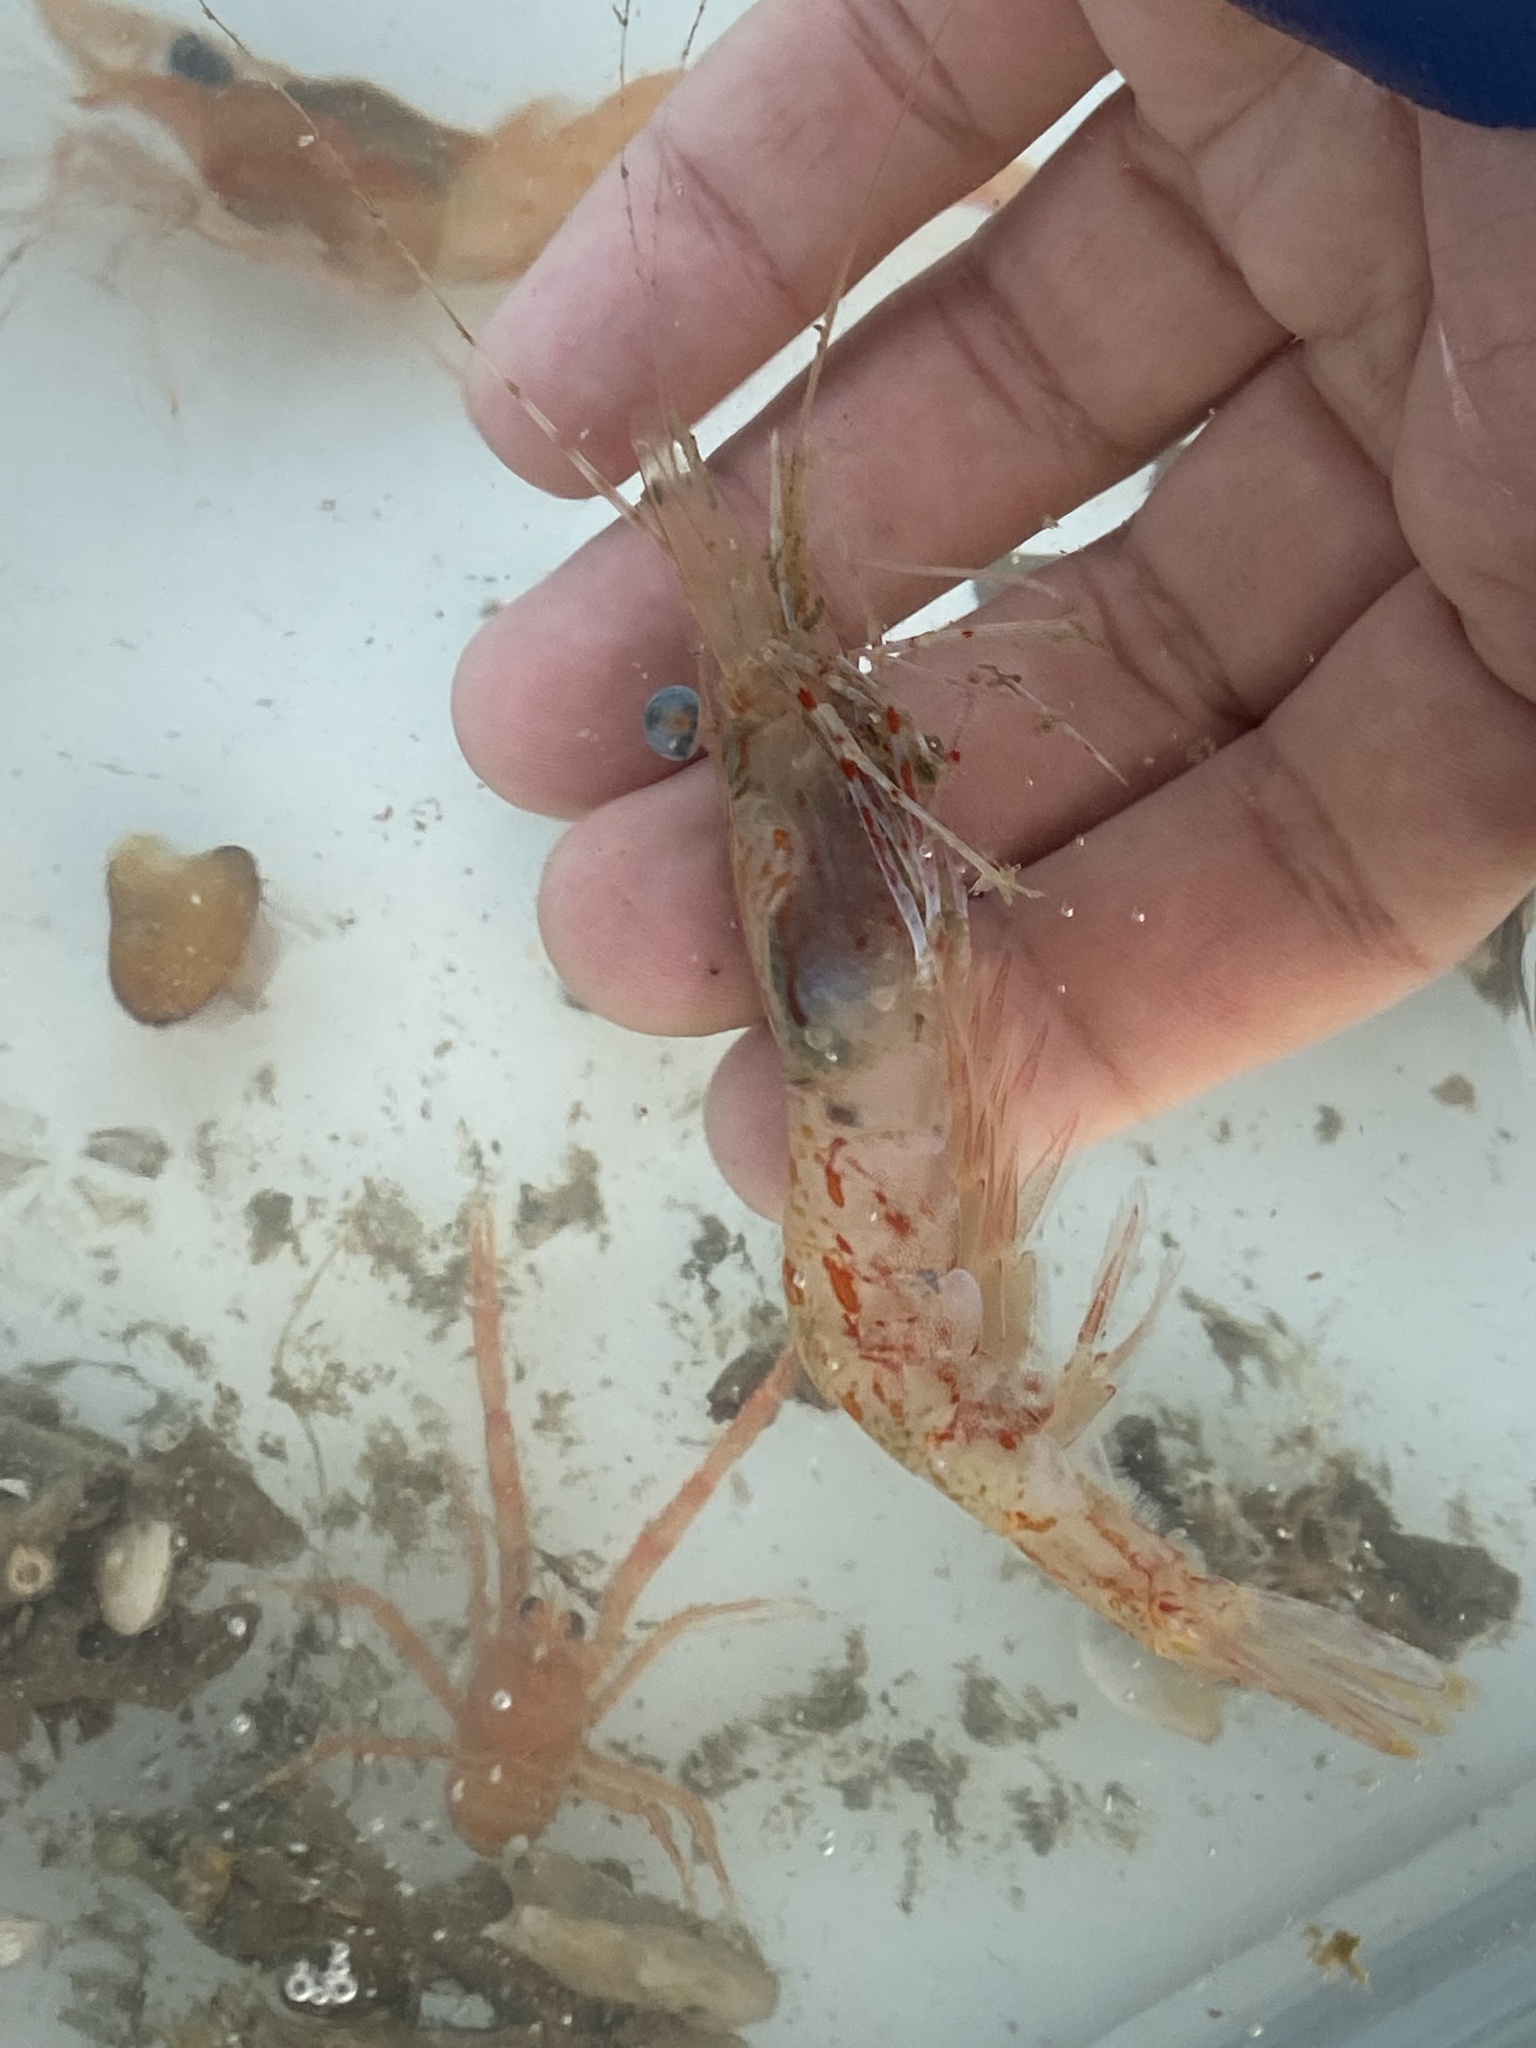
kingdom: Animalia
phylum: Arthropoda
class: Malacostraca
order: Decapoda
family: Pandalidae
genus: Dichelopandalus
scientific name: Dichelopandalus bonnieri
